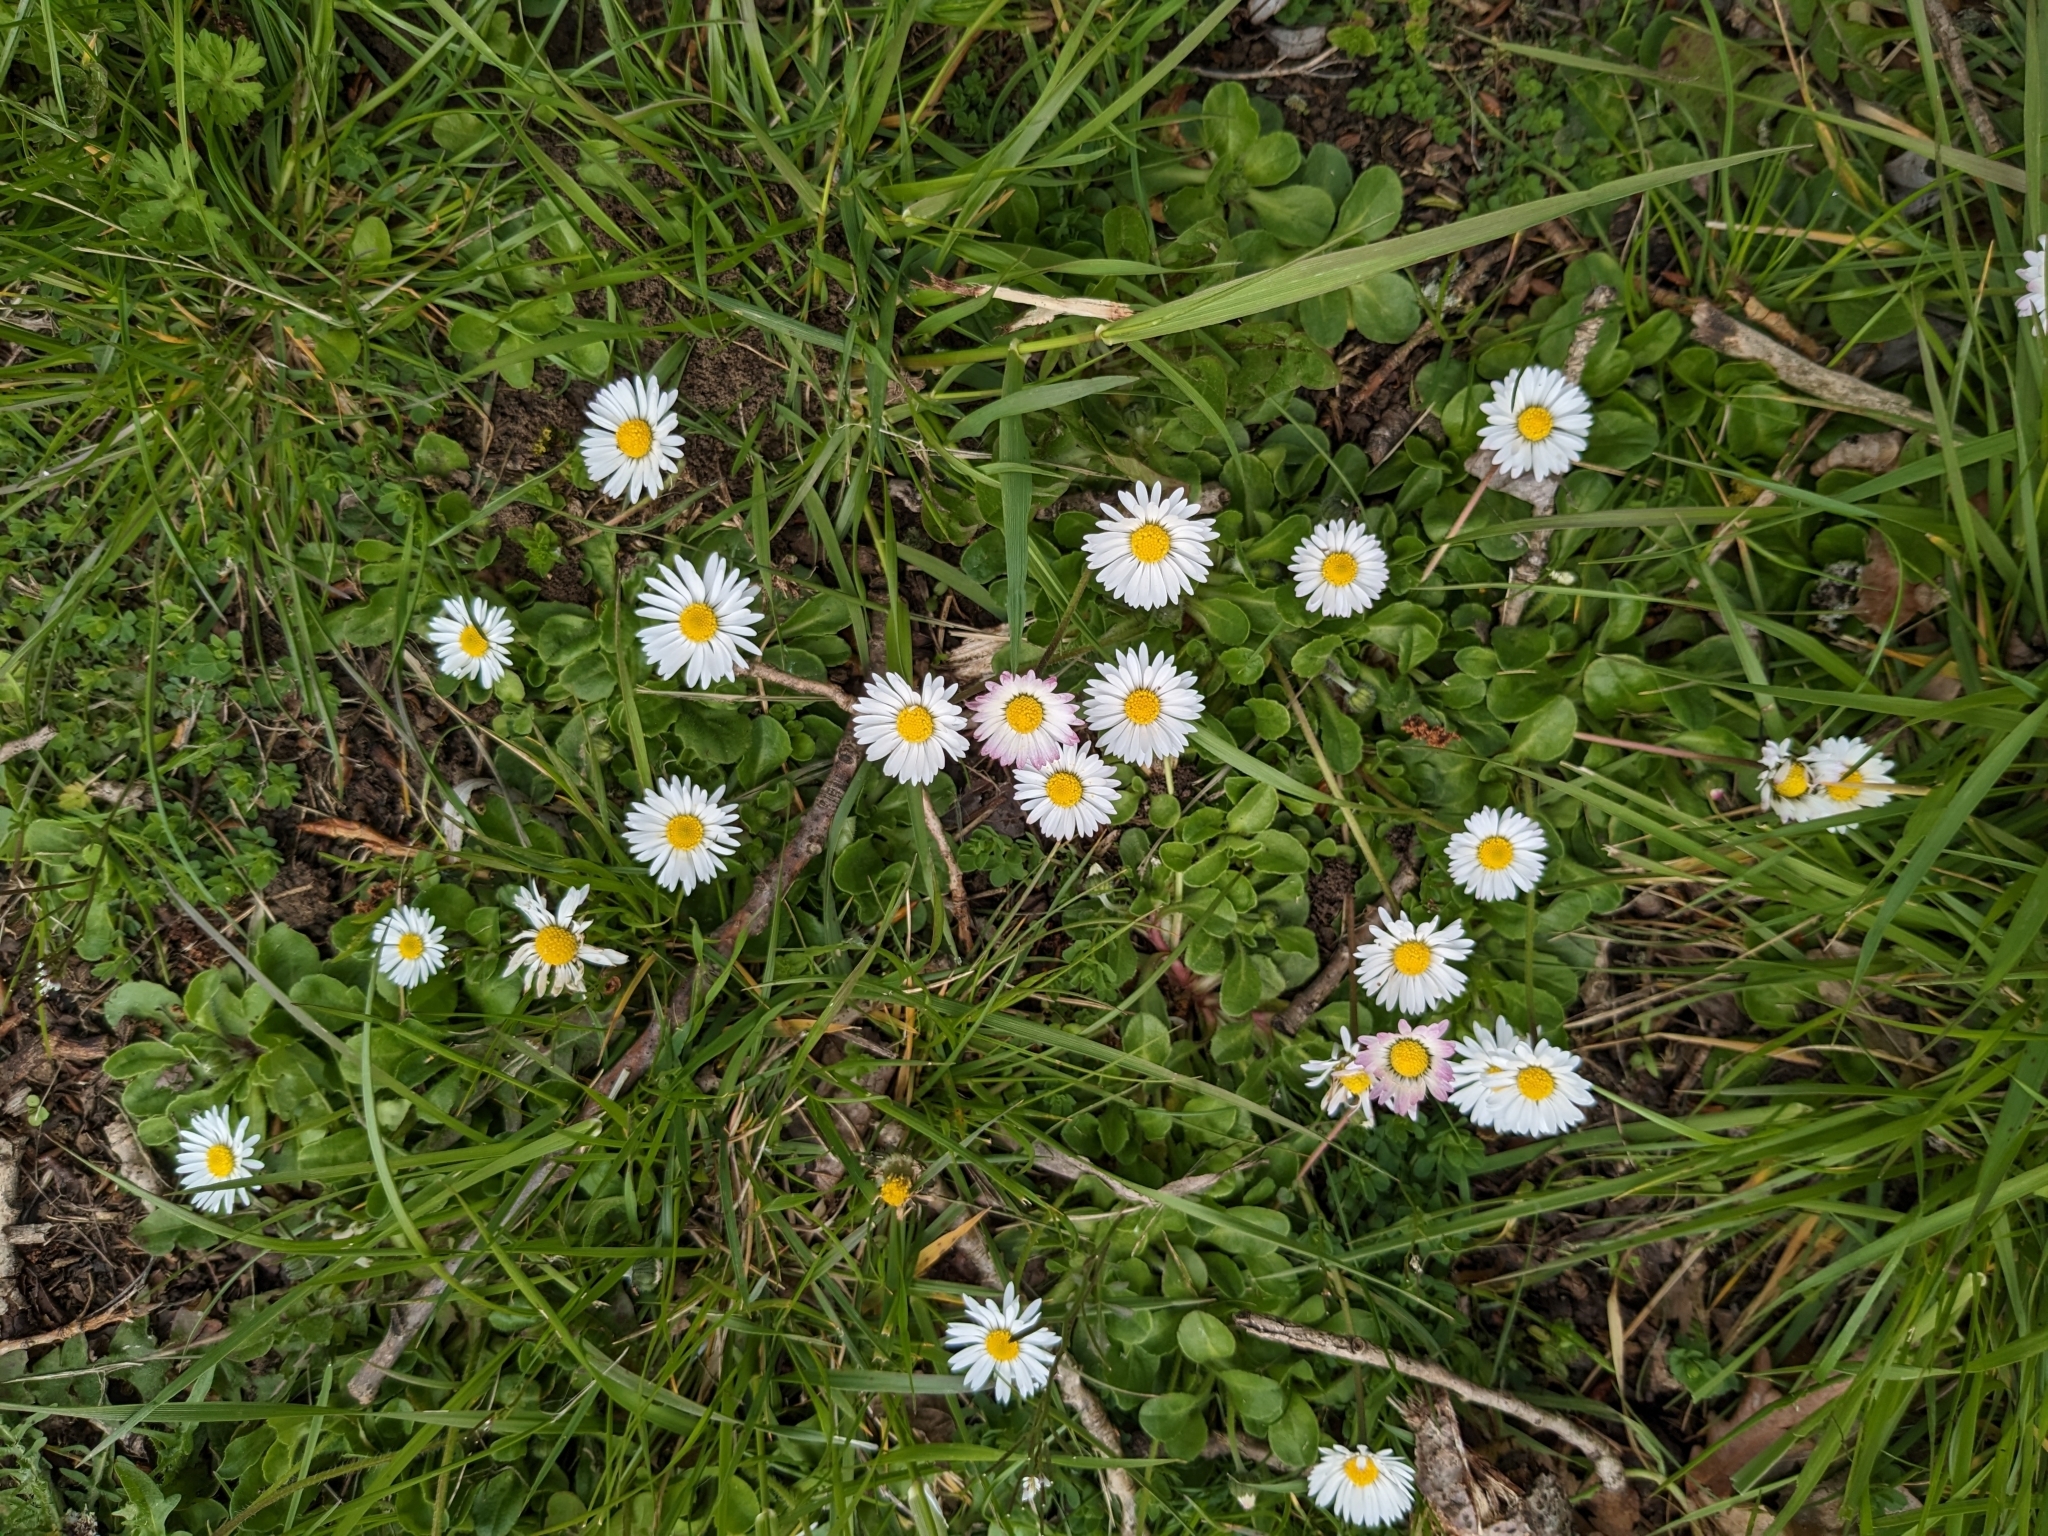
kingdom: Plantae
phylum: Tracheophyta
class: Magnoliopsida
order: Asterales
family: Asteraceae
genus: Bellis
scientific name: Bellis perennis
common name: Lawndaisy
